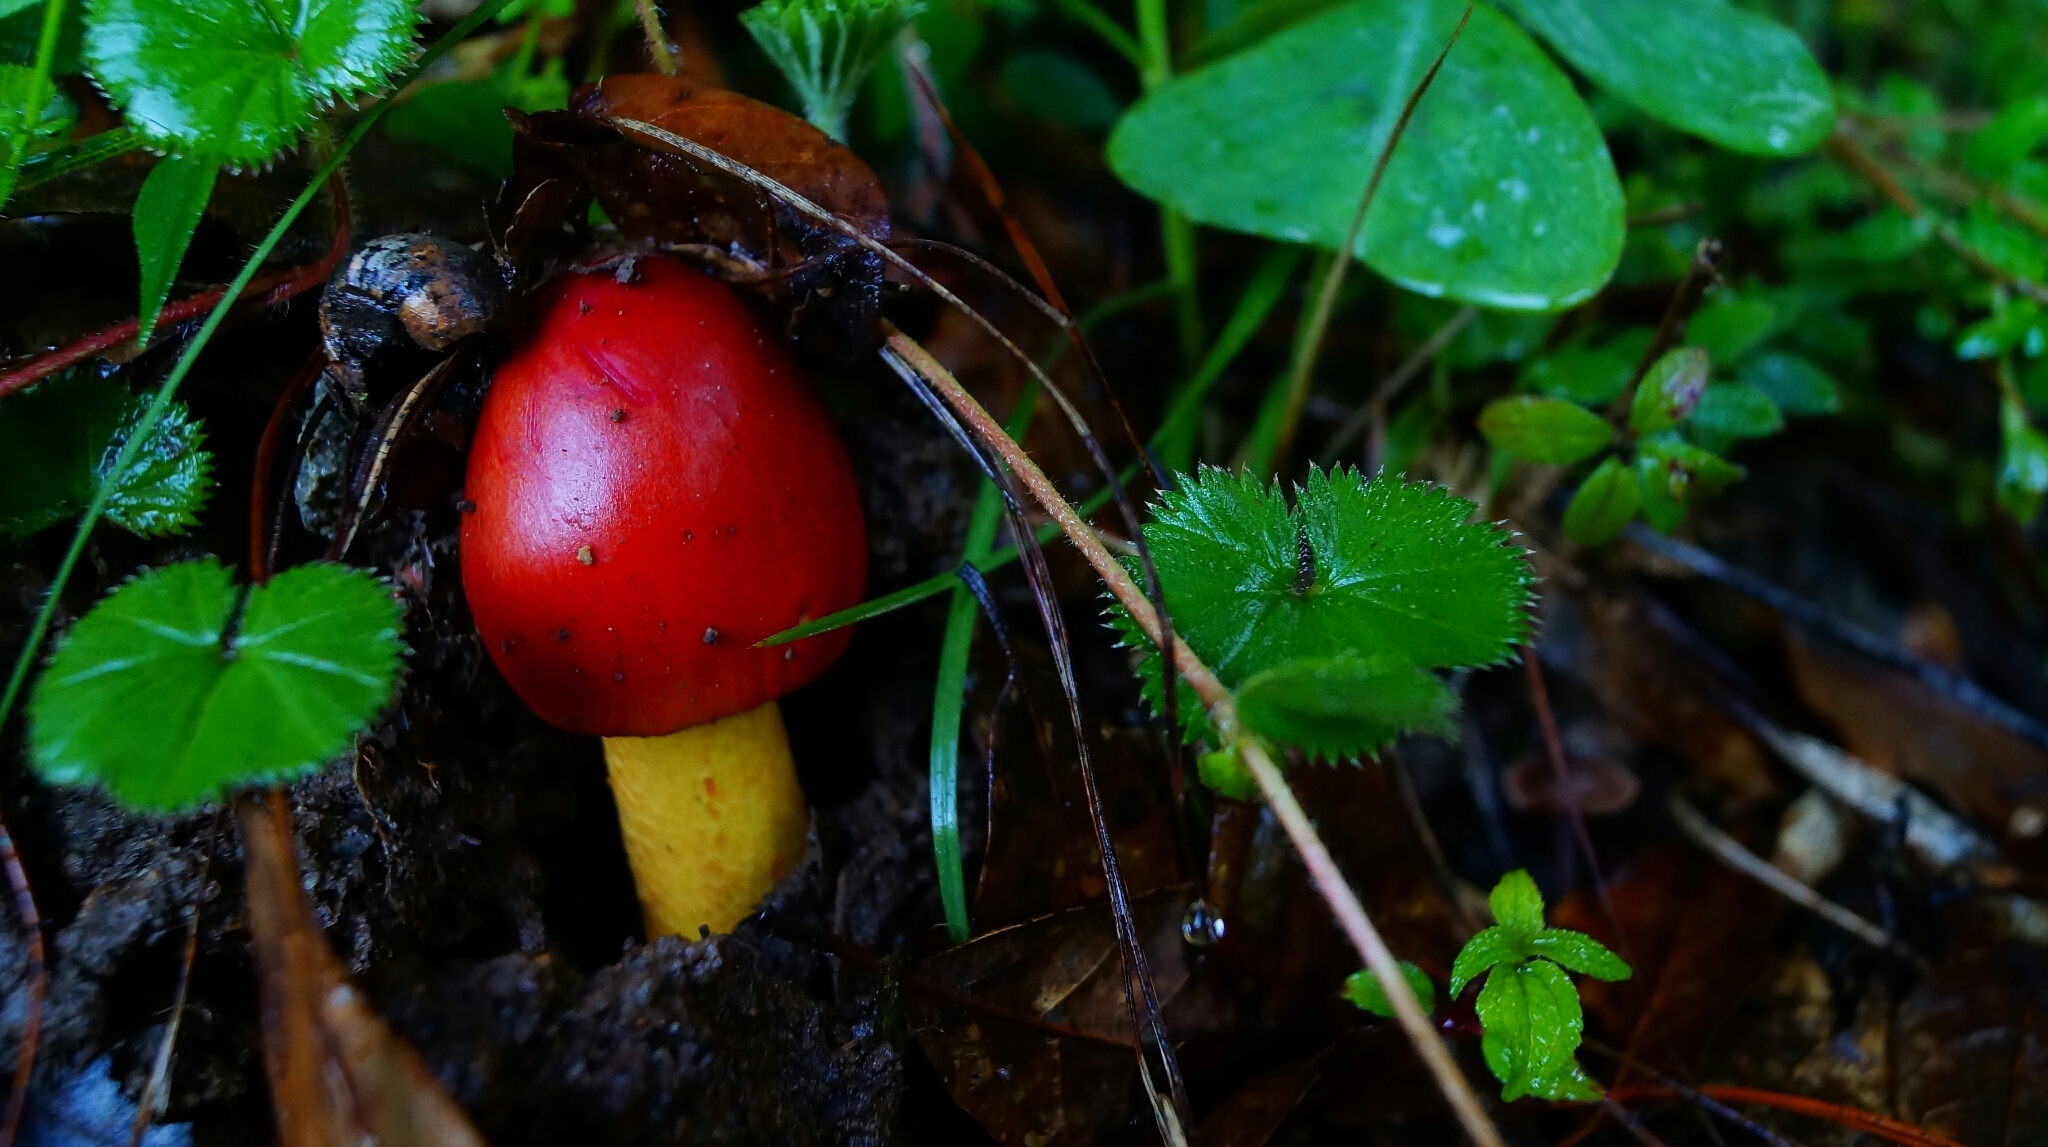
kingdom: Fungi
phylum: Basidiomycota
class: Agaricomycetes
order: Agaricales
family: Amanitaceae
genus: Amanita
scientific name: Amanita jacksonii
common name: Jackson's slender caesar
